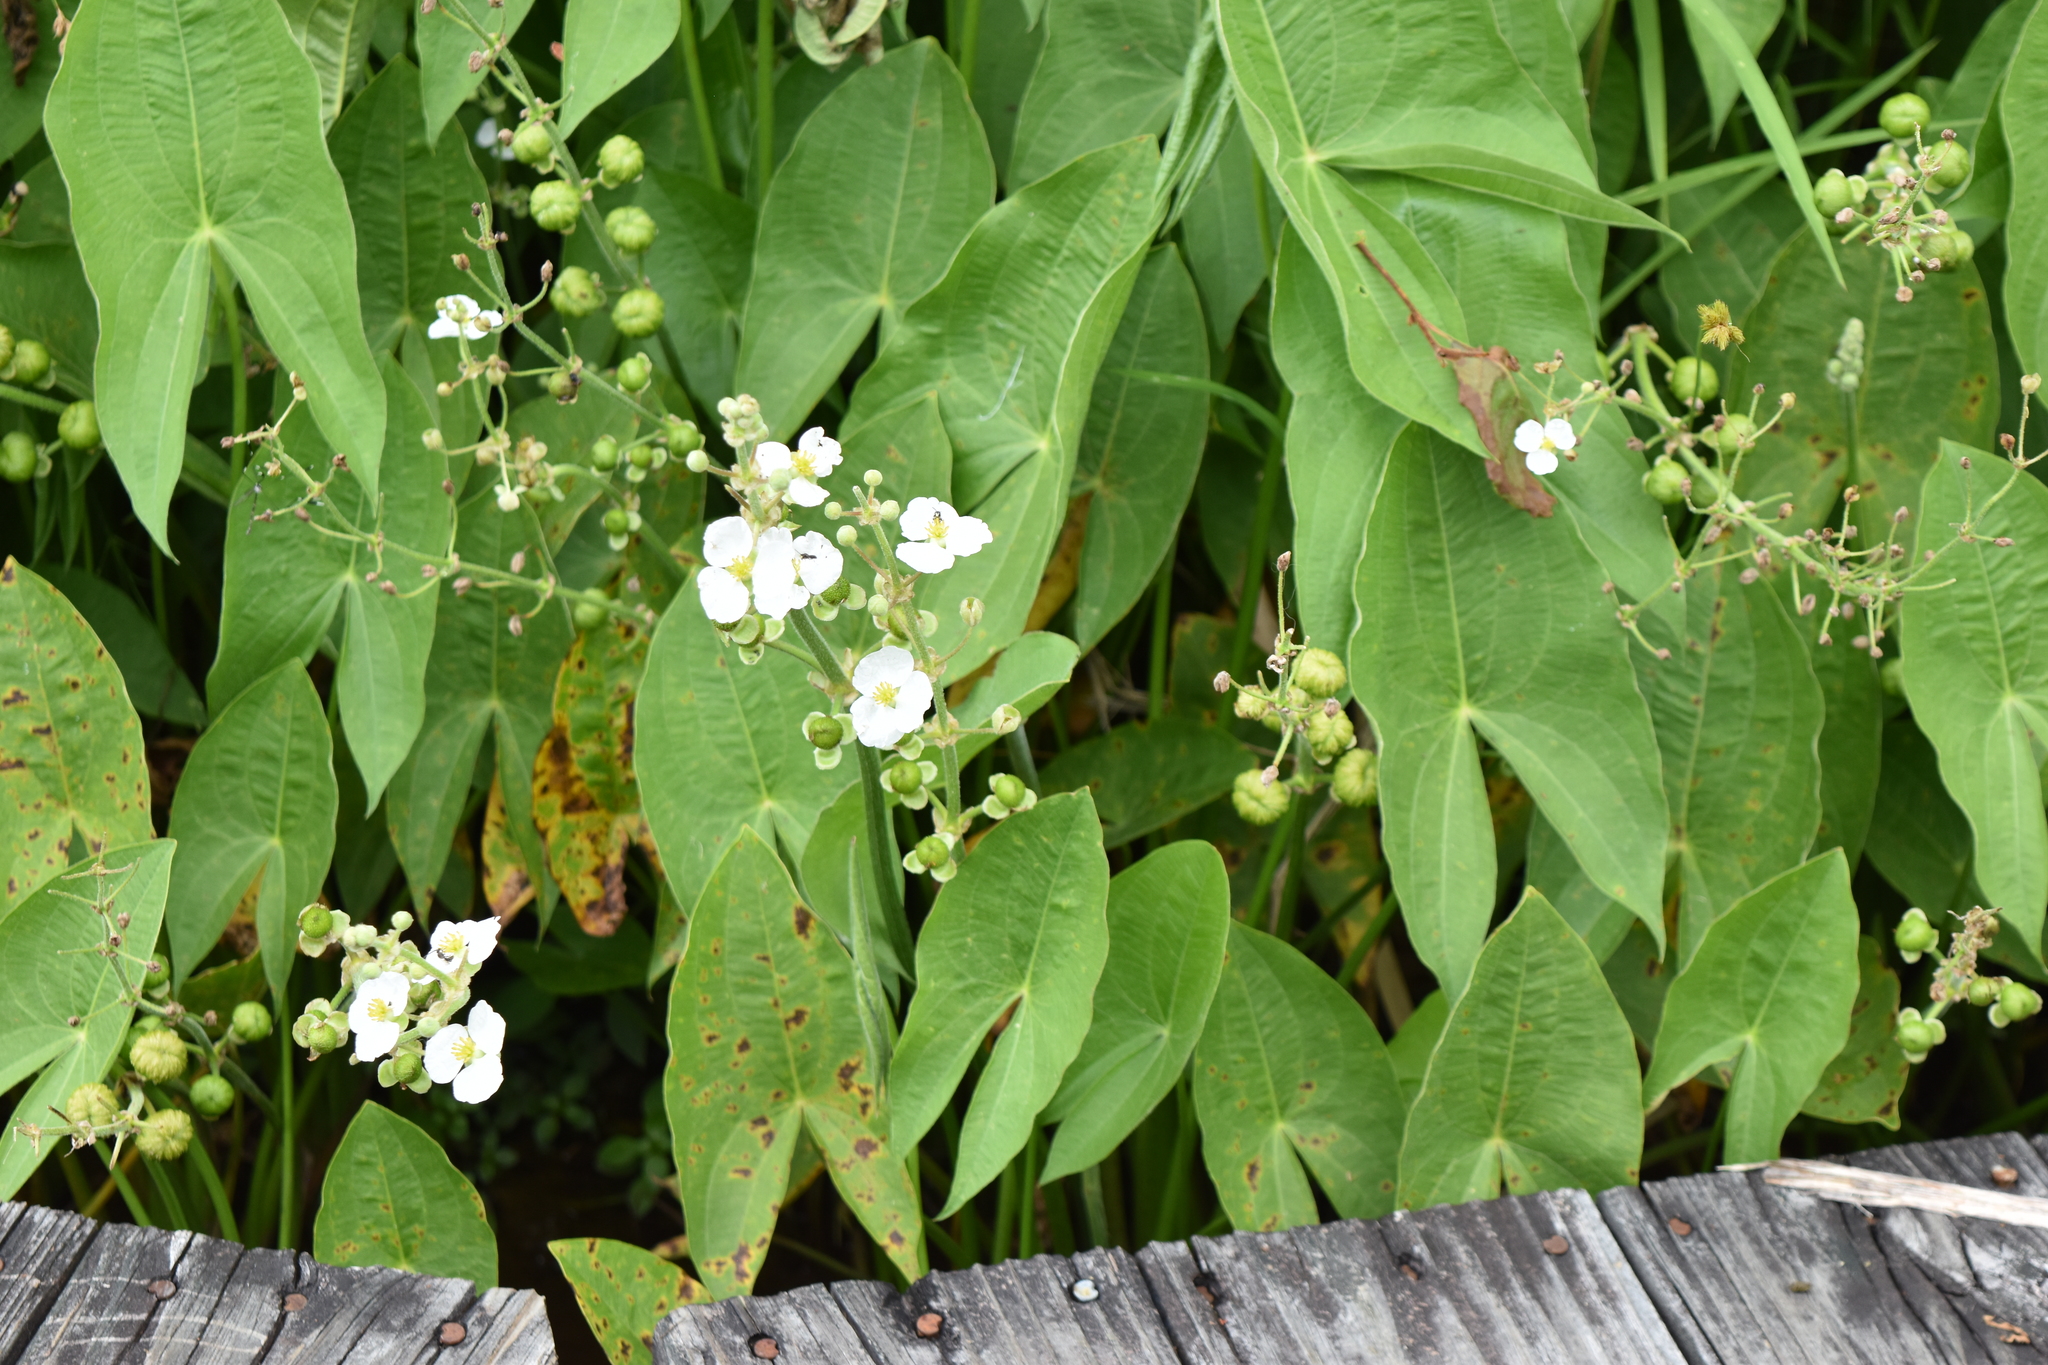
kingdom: Plantae
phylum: Tracheophyta
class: Liliopsida
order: Alismatales
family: Alismataceae
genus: Sagittaria
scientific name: Sagittaria latifolia
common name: Duck-potato
